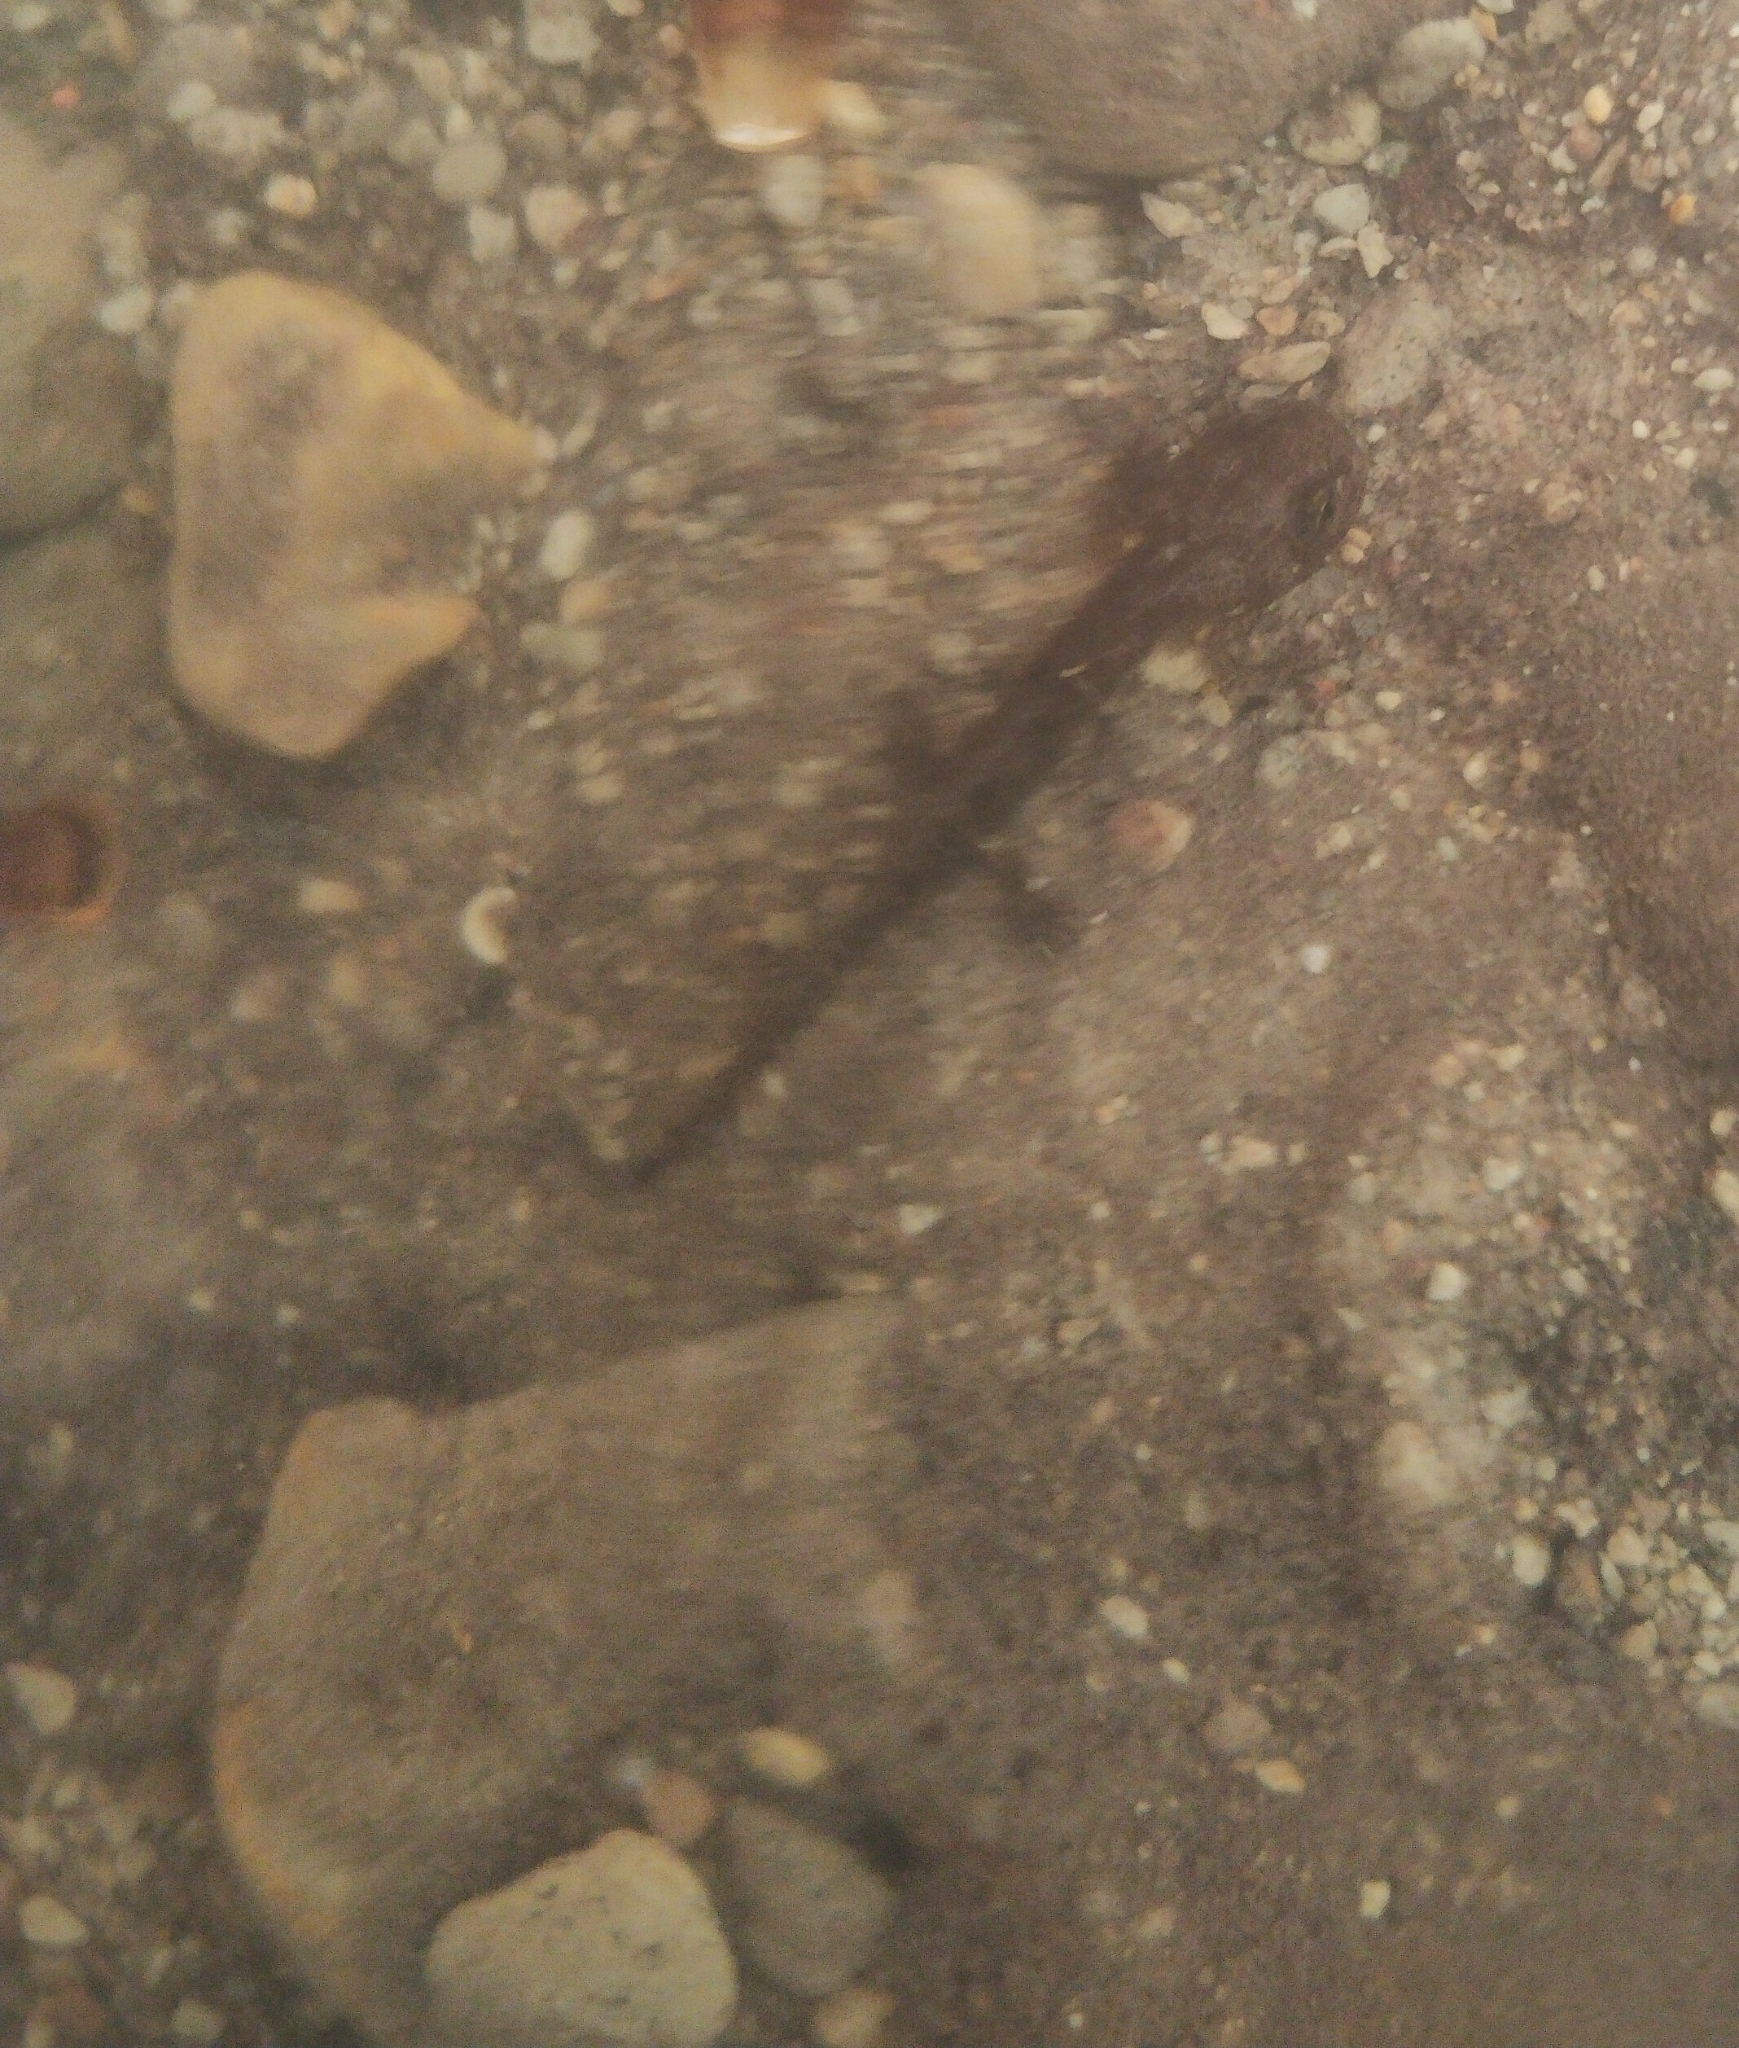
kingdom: Animalia
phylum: Chordata
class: Amphibia
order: Caudata
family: Salamandridae
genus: Salamandra
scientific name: Salamandra salamandra
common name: Fire salamander
